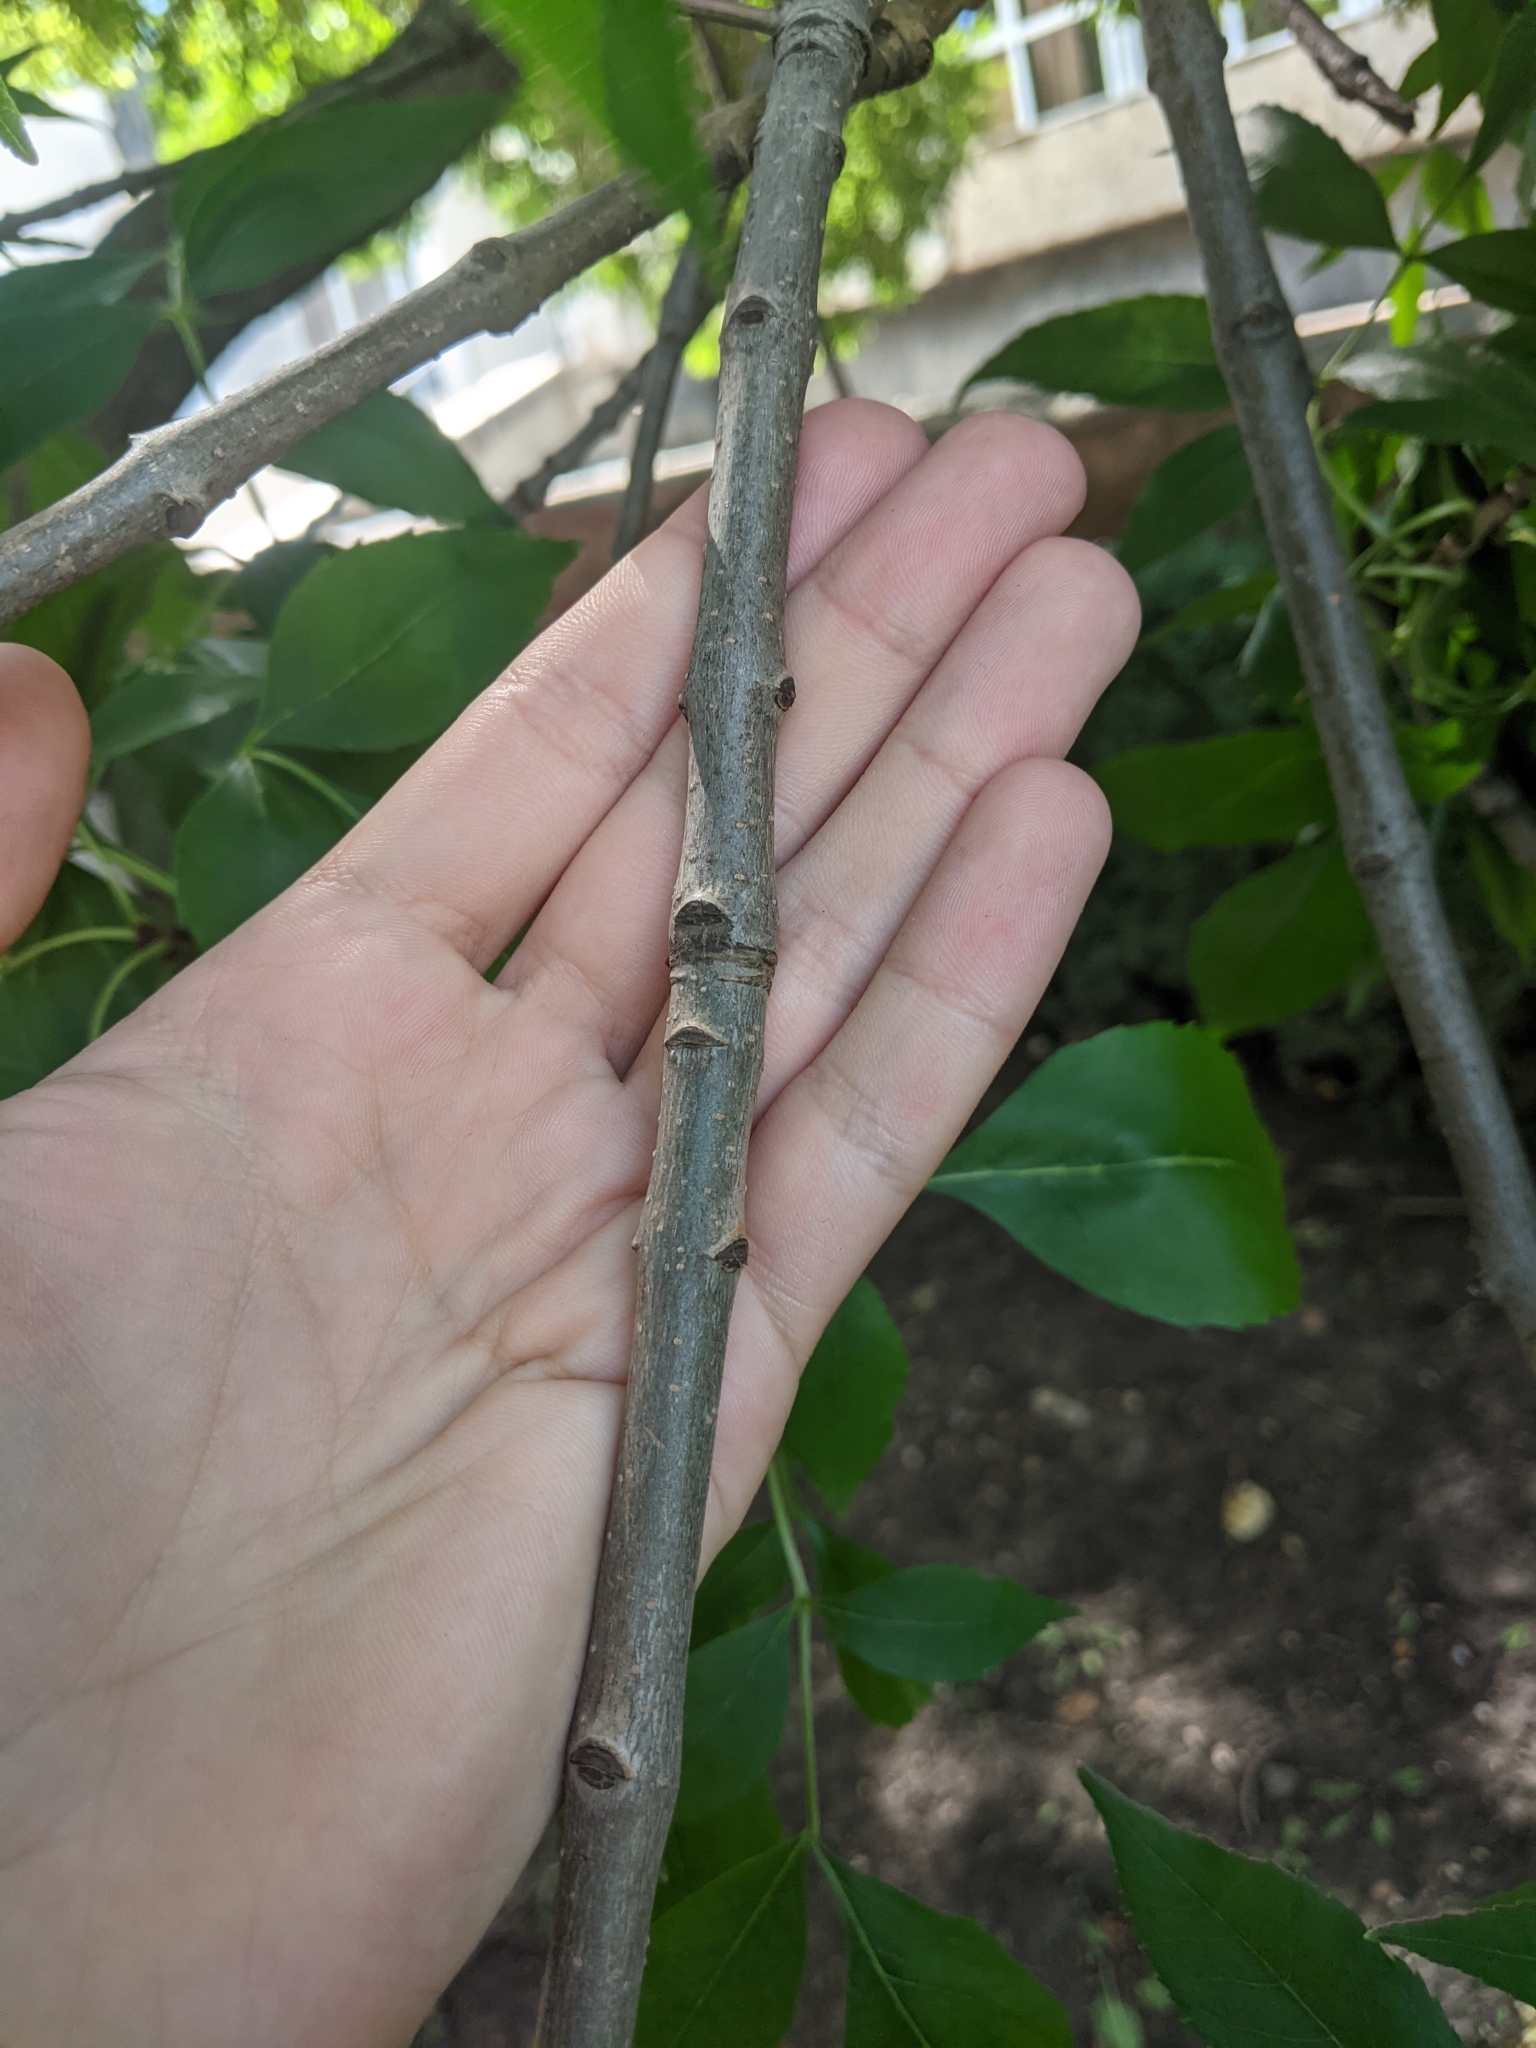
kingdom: Plantae
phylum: Tracheophyta
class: Magnoliopsida
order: Lamiales
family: Oleaceae
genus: Fraxinus
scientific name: Fraxinus pennsylvanica
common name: Green ash
